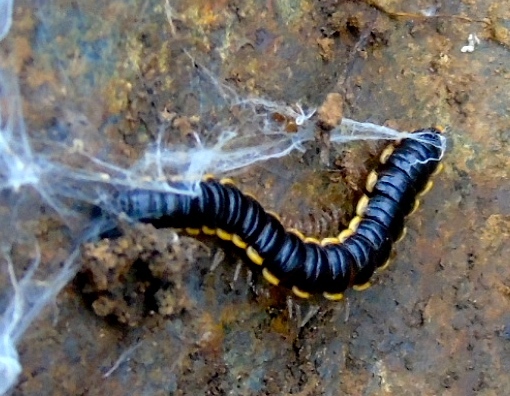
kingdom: Animalia
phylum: Arthropoda
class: Diplopoda
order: Polydesmida
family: Paradoxosomatidae
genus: Orthomorpha
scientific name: Orthomorpha coarctata
